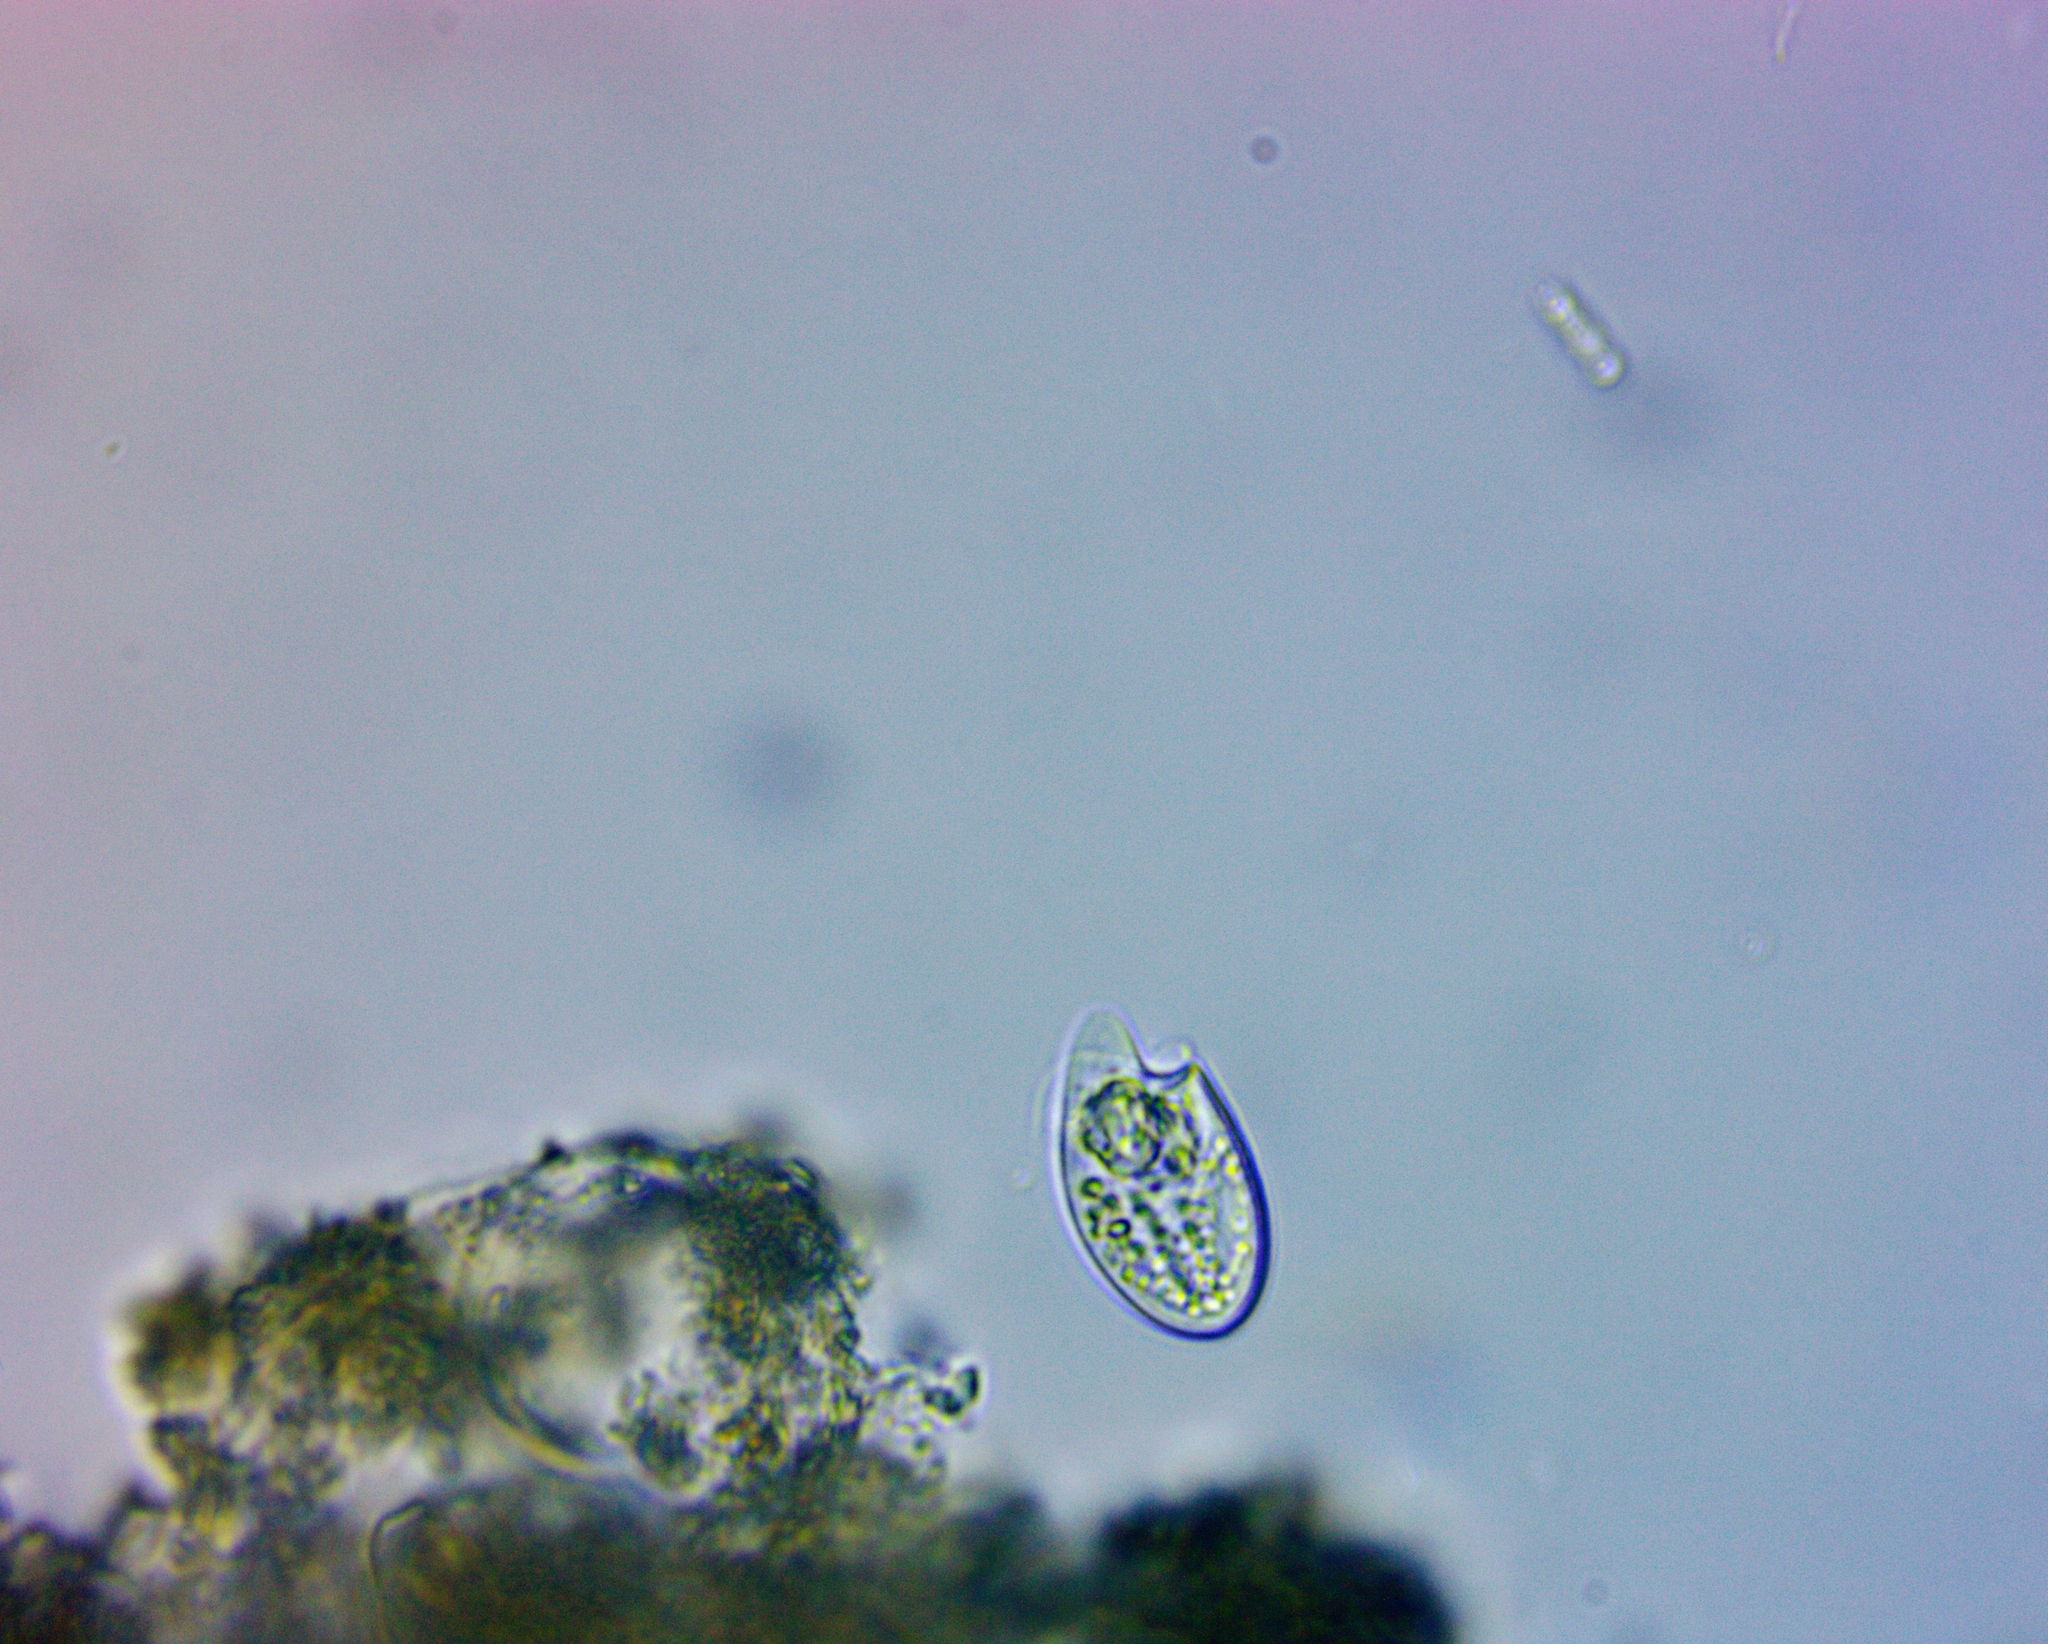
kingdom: Chromista
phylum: Myzozoa
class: Dinophyceae
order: Oxyrrhinales
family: Oxyrrhinaceae
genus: Oxyrrhis
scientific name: Oxyrrhis marina
